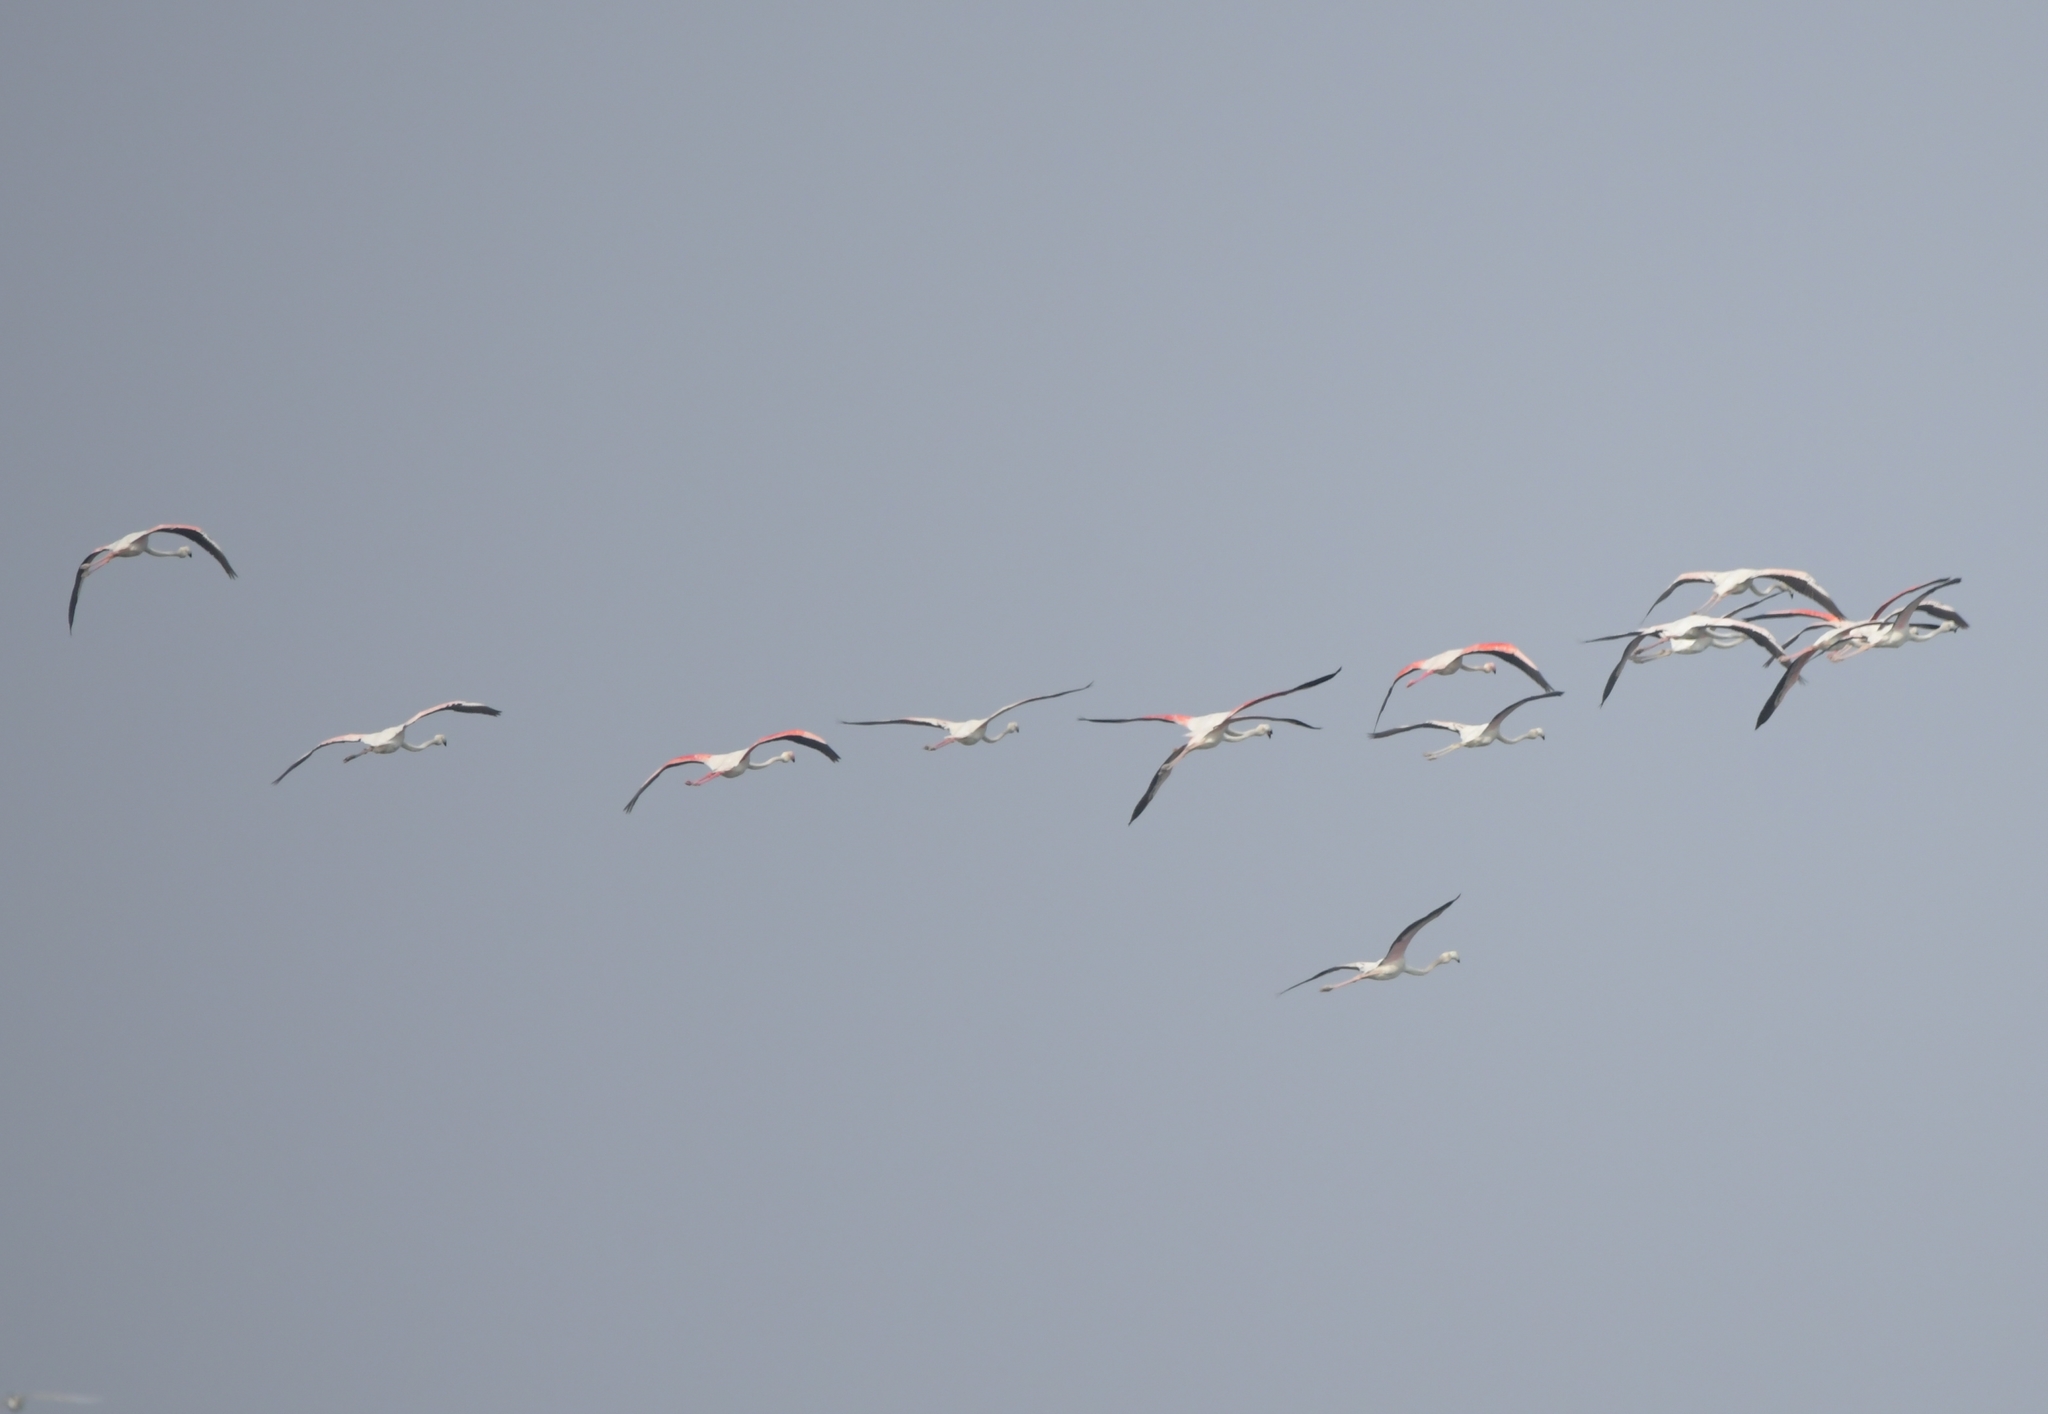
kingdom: Animalia
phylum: Chordata
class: Aves
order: Phoenicopteriformes
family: Phoenicopteridae
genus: Phoenicopterus
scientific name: Phoenicopterus roseus
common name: Greater flamingo
